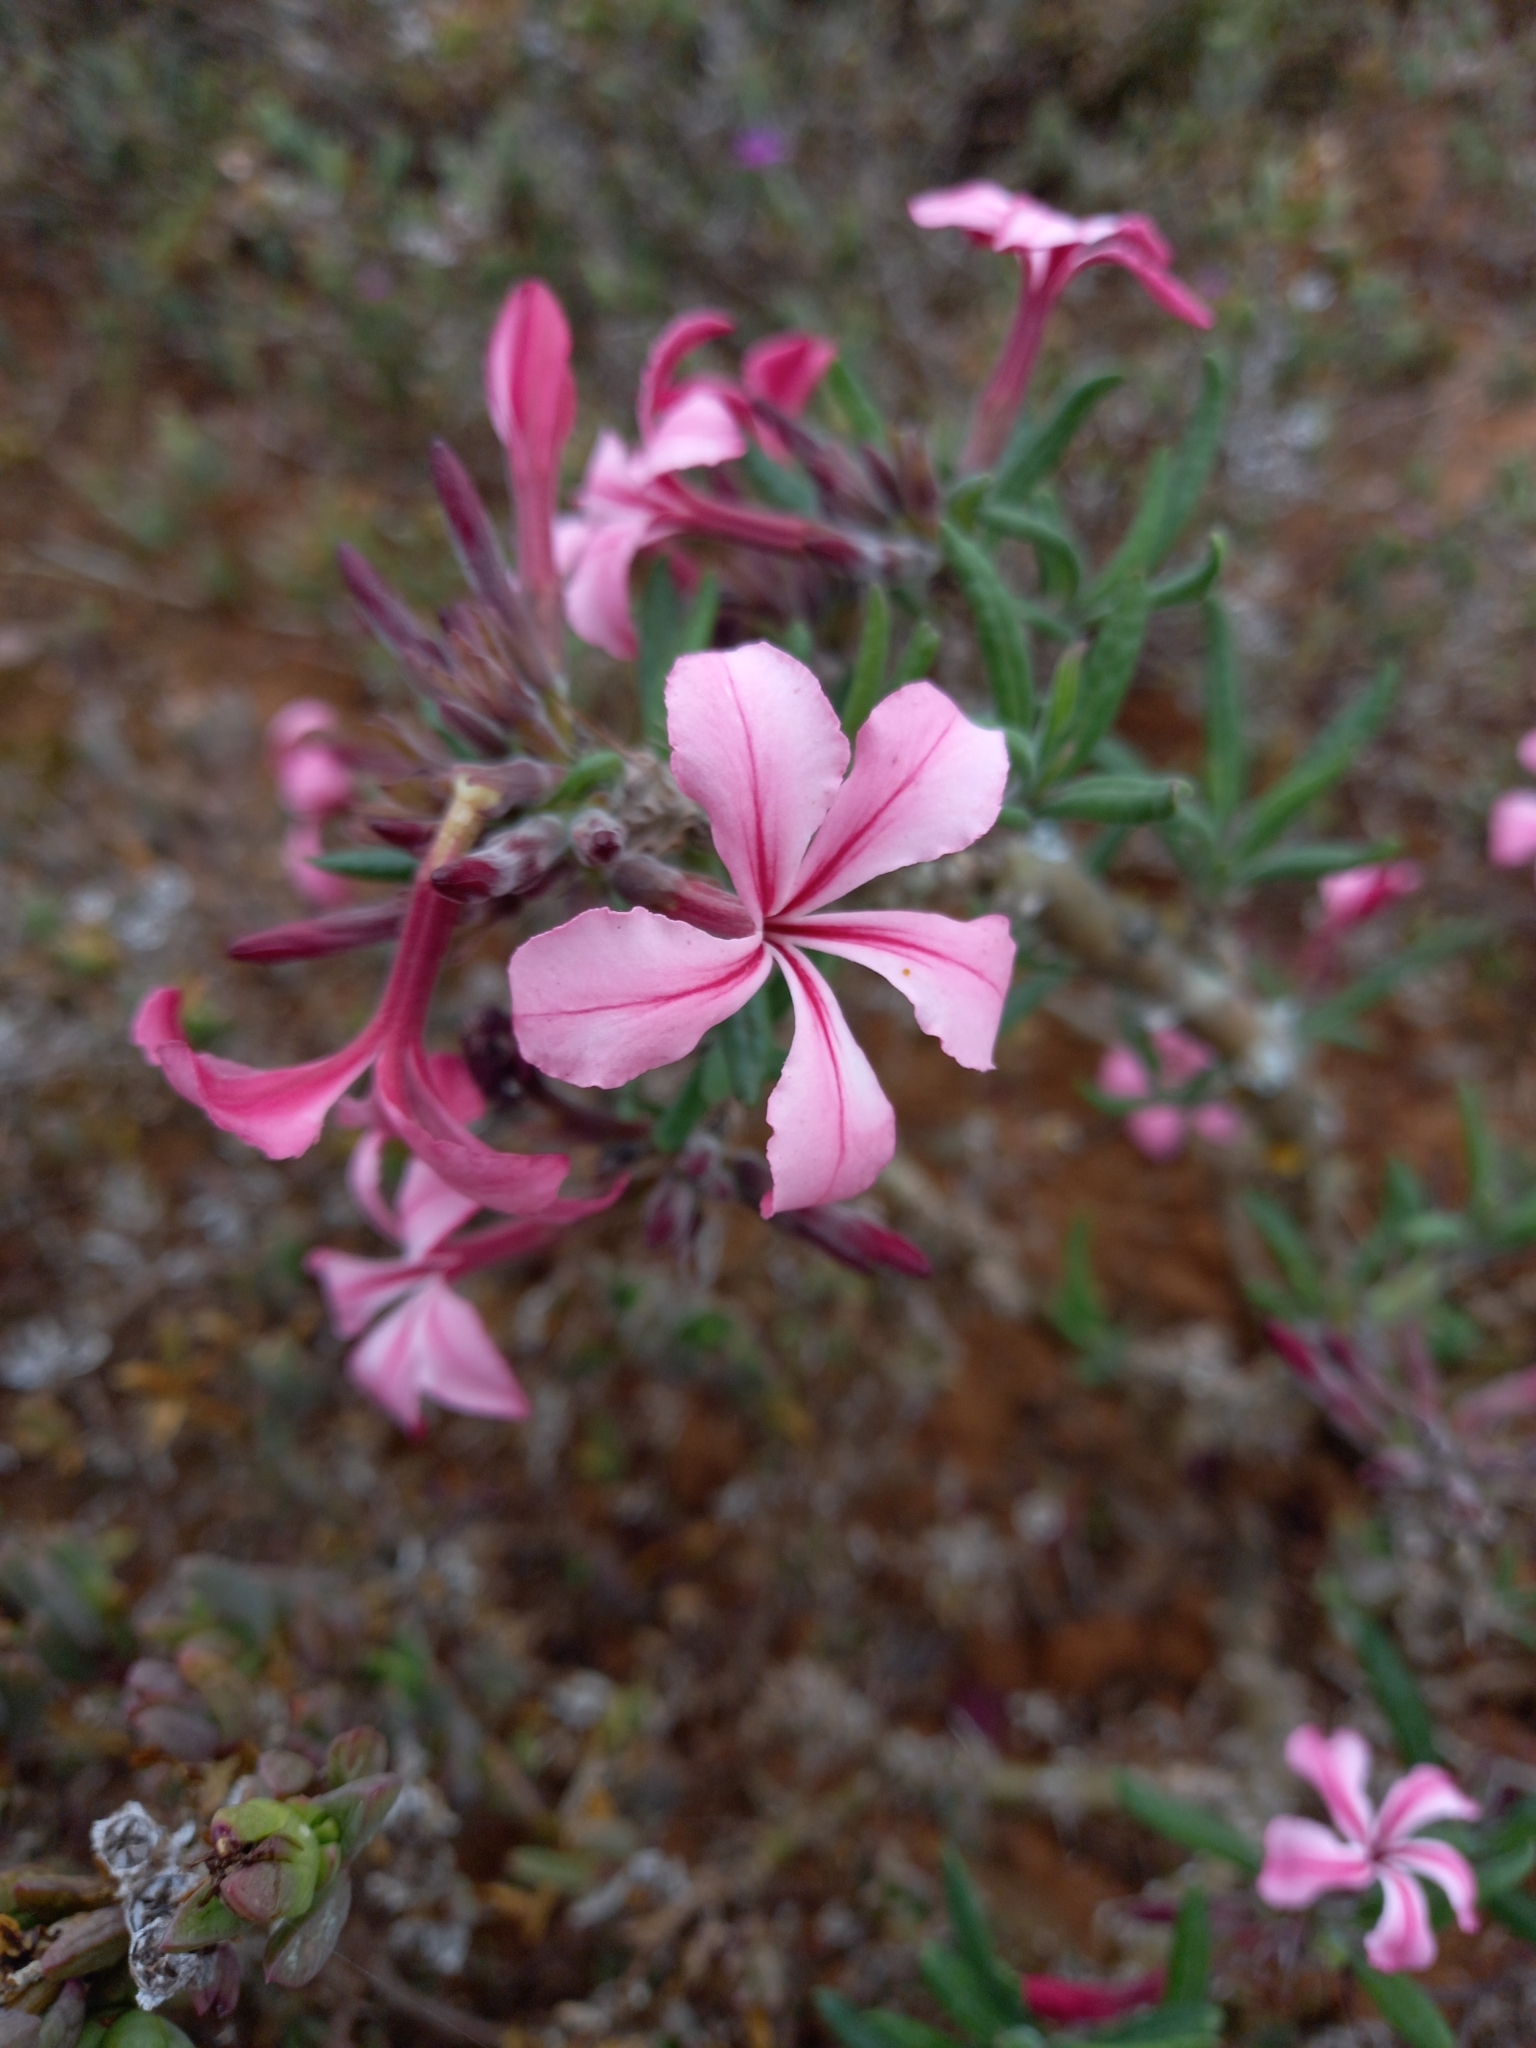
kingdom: Plantae
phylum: Tracheophyta
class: Magnoliopsida
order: Gentianales
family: Apocynaceae
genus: Pachypodium
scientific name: Pachypodium succulentum
